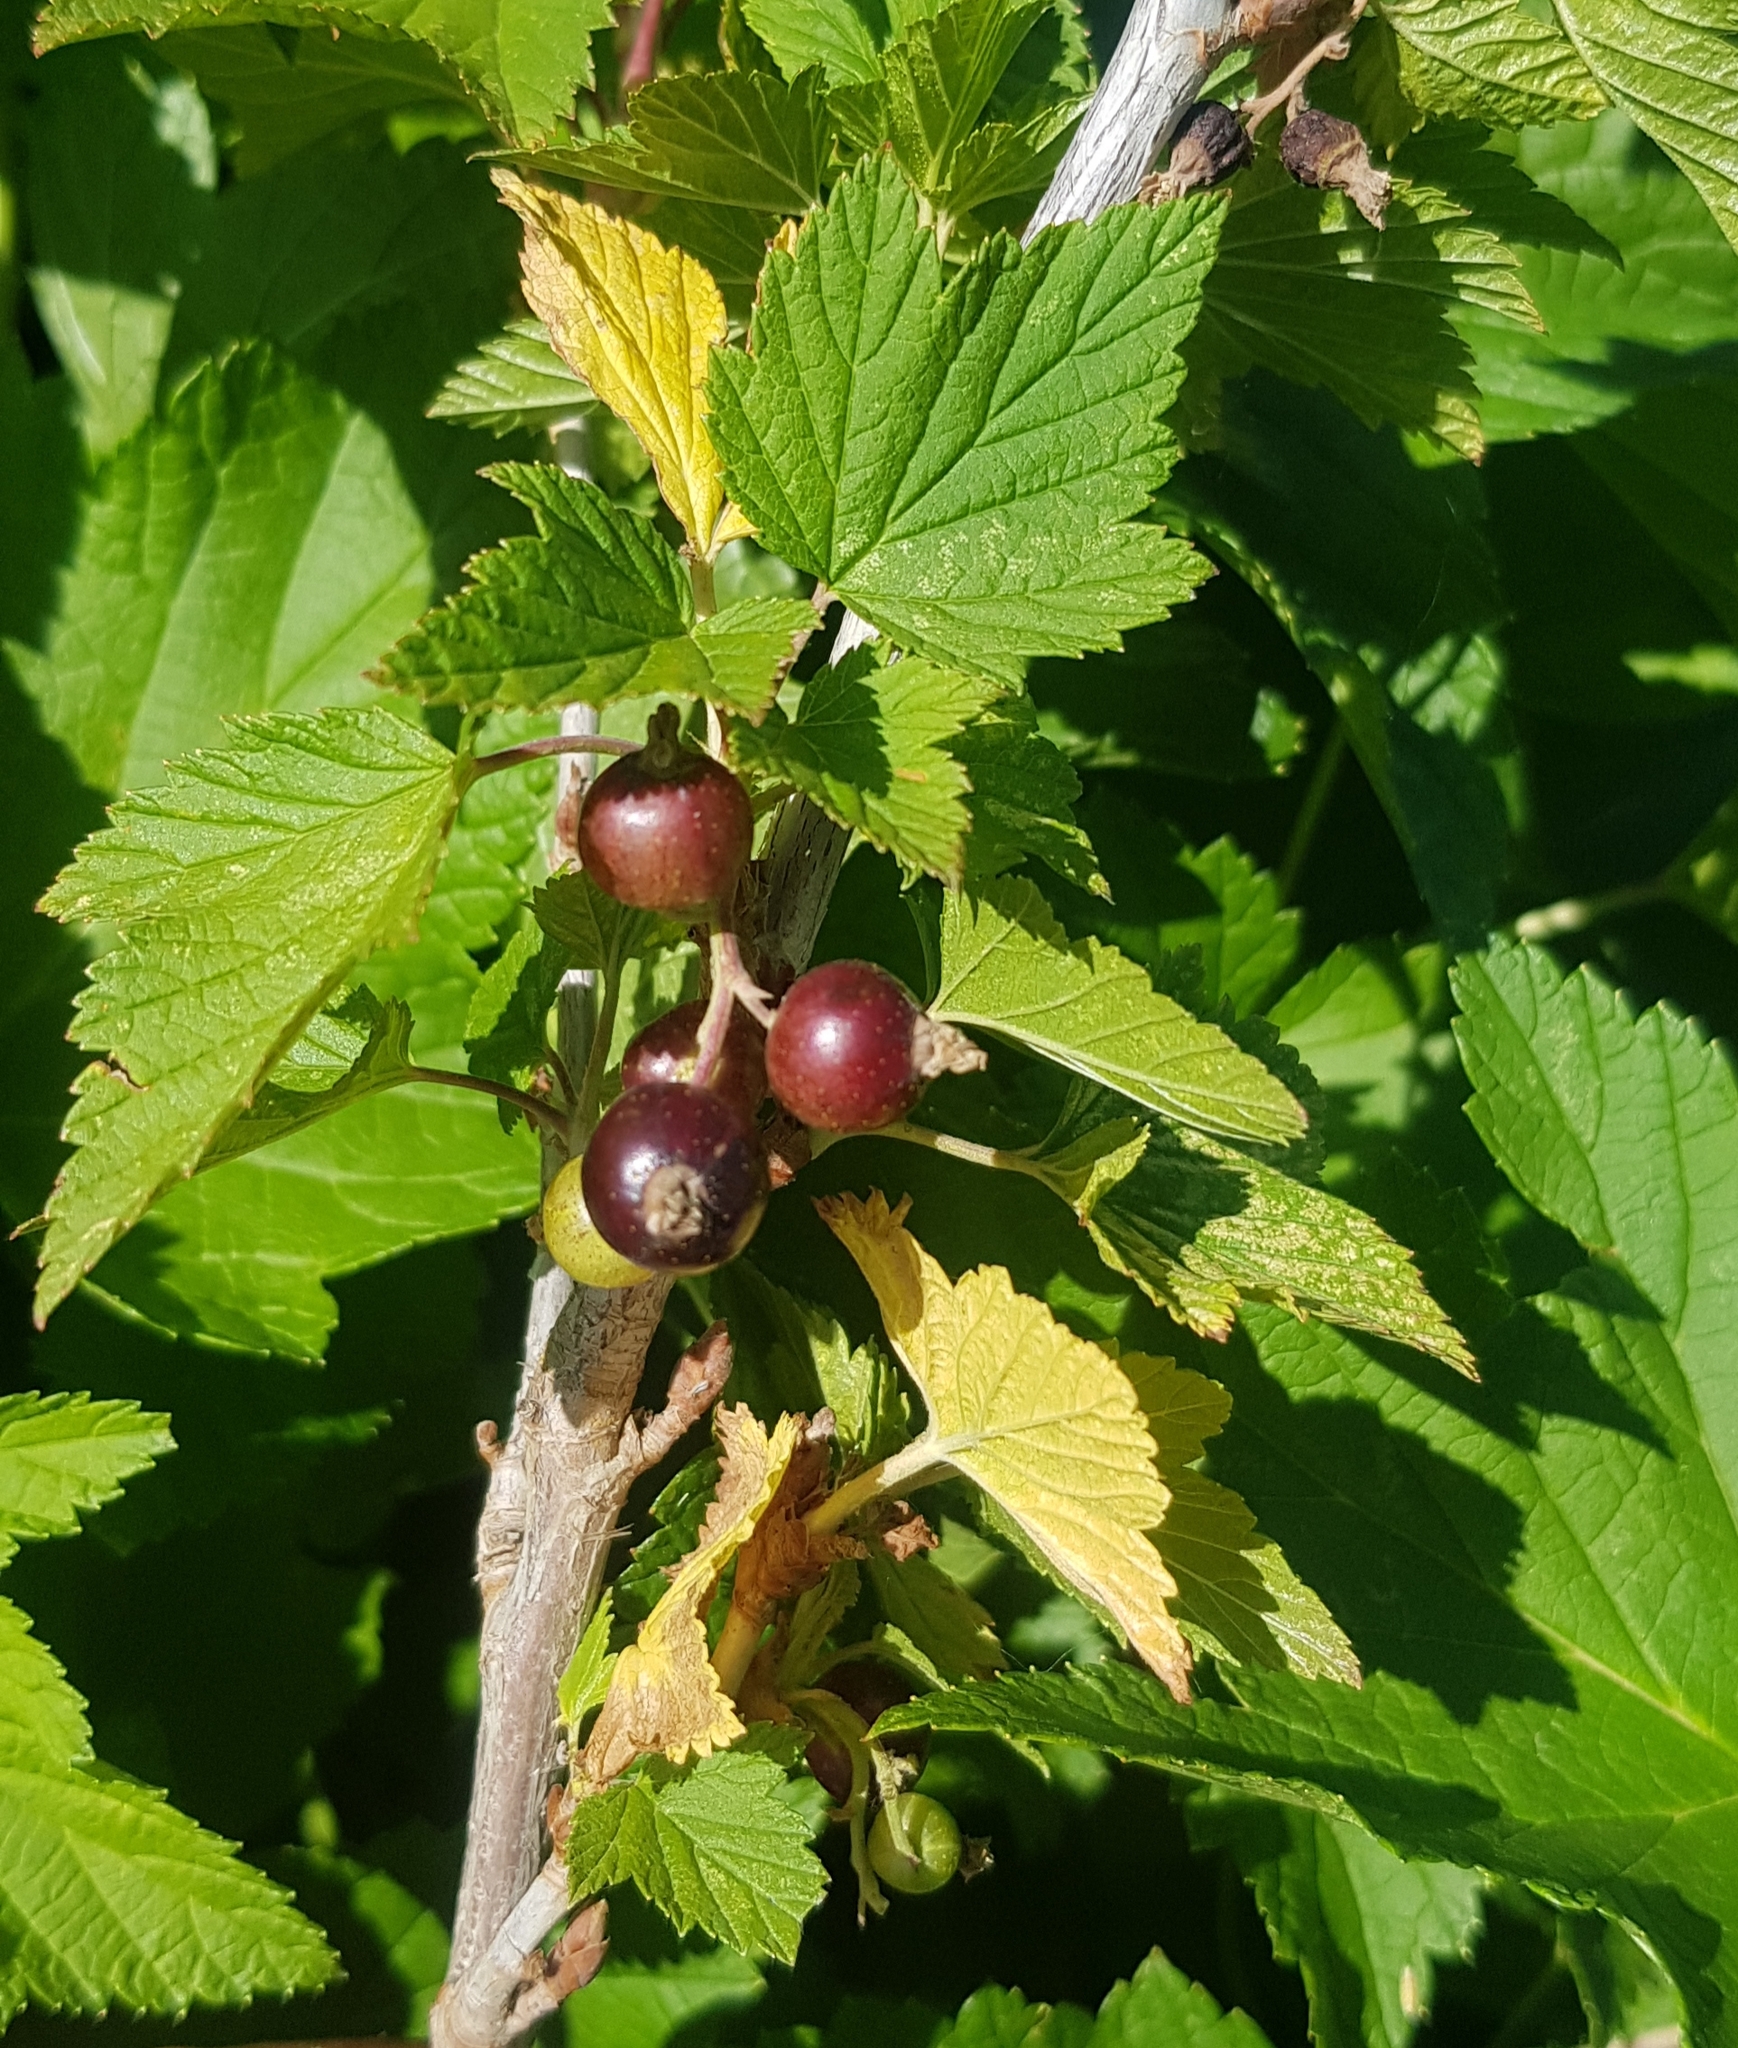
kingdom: Plantae
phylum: Tracheophyta
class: Magnoliopsida
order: Saxifragales
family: Grossulariaceae
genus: Ribes
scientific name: Ribes nigrum
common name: Black currant
